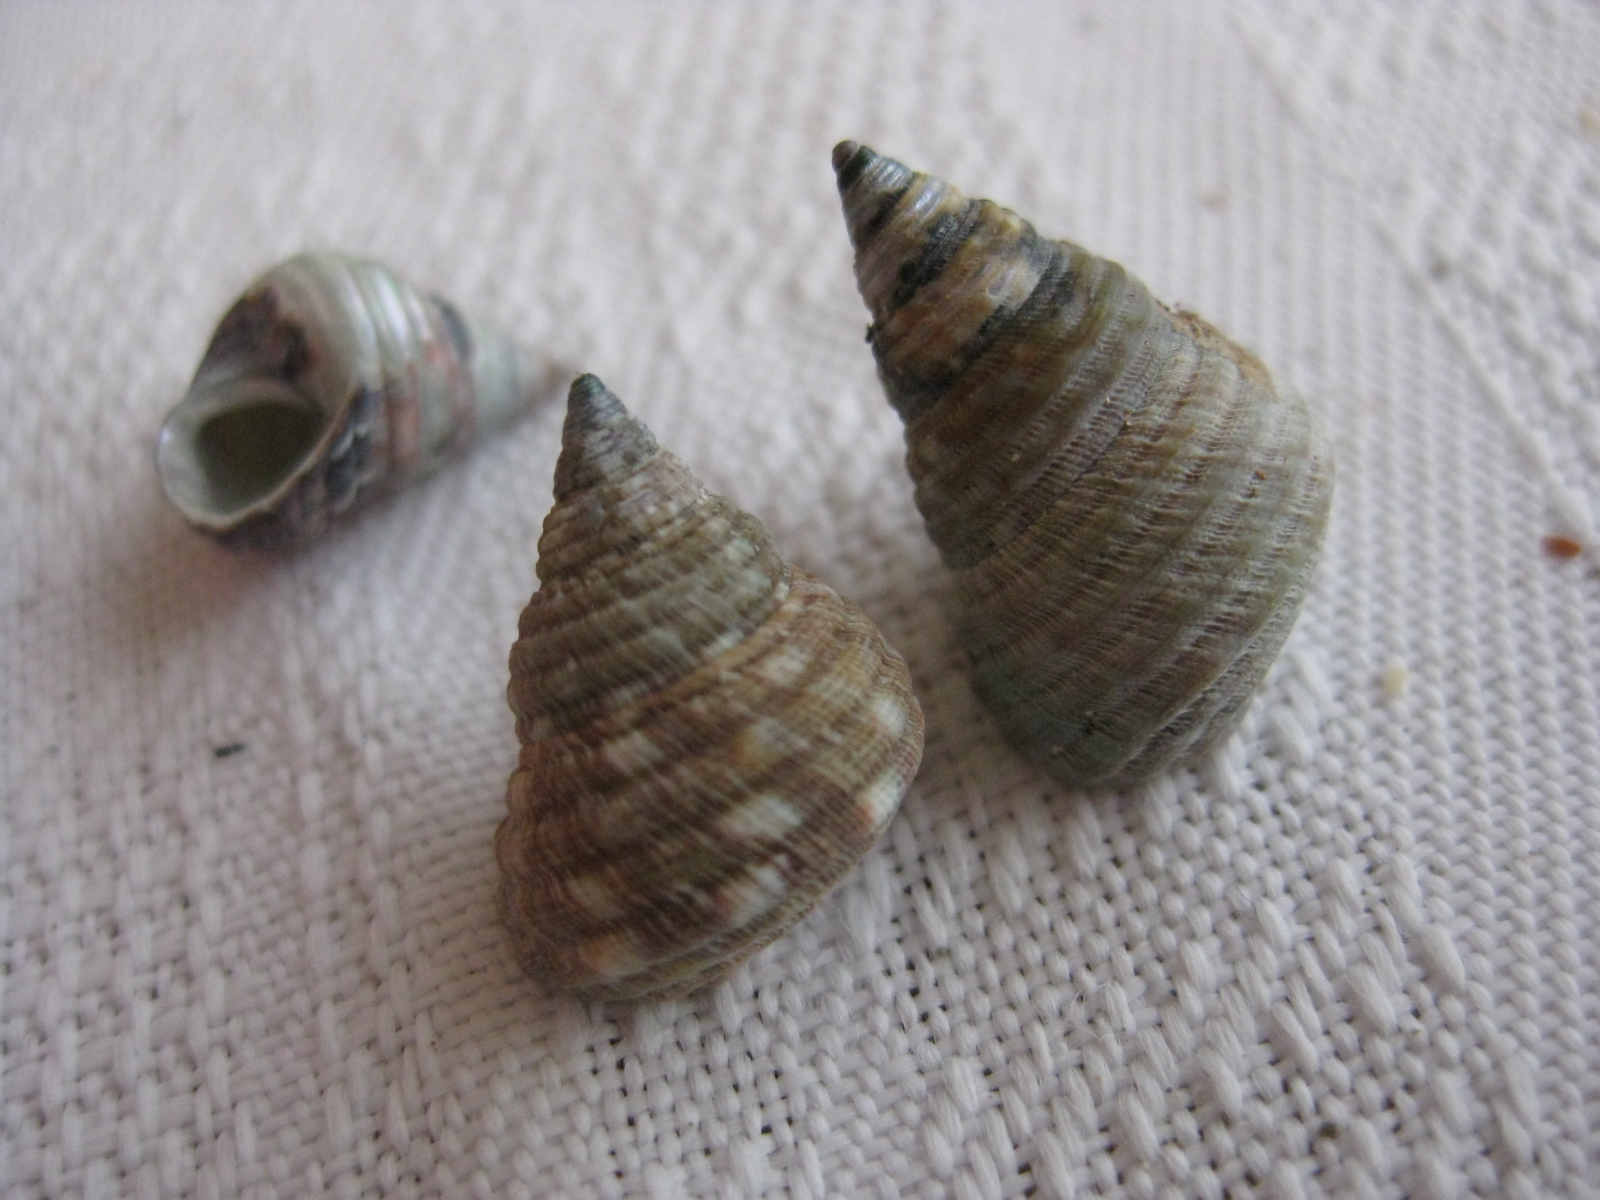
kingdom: Animalia
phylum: Mollusca
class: Gastropoda
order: Trochida
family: Trochidae
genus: Micrelenchus
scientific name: Micrelenchus purpureus
